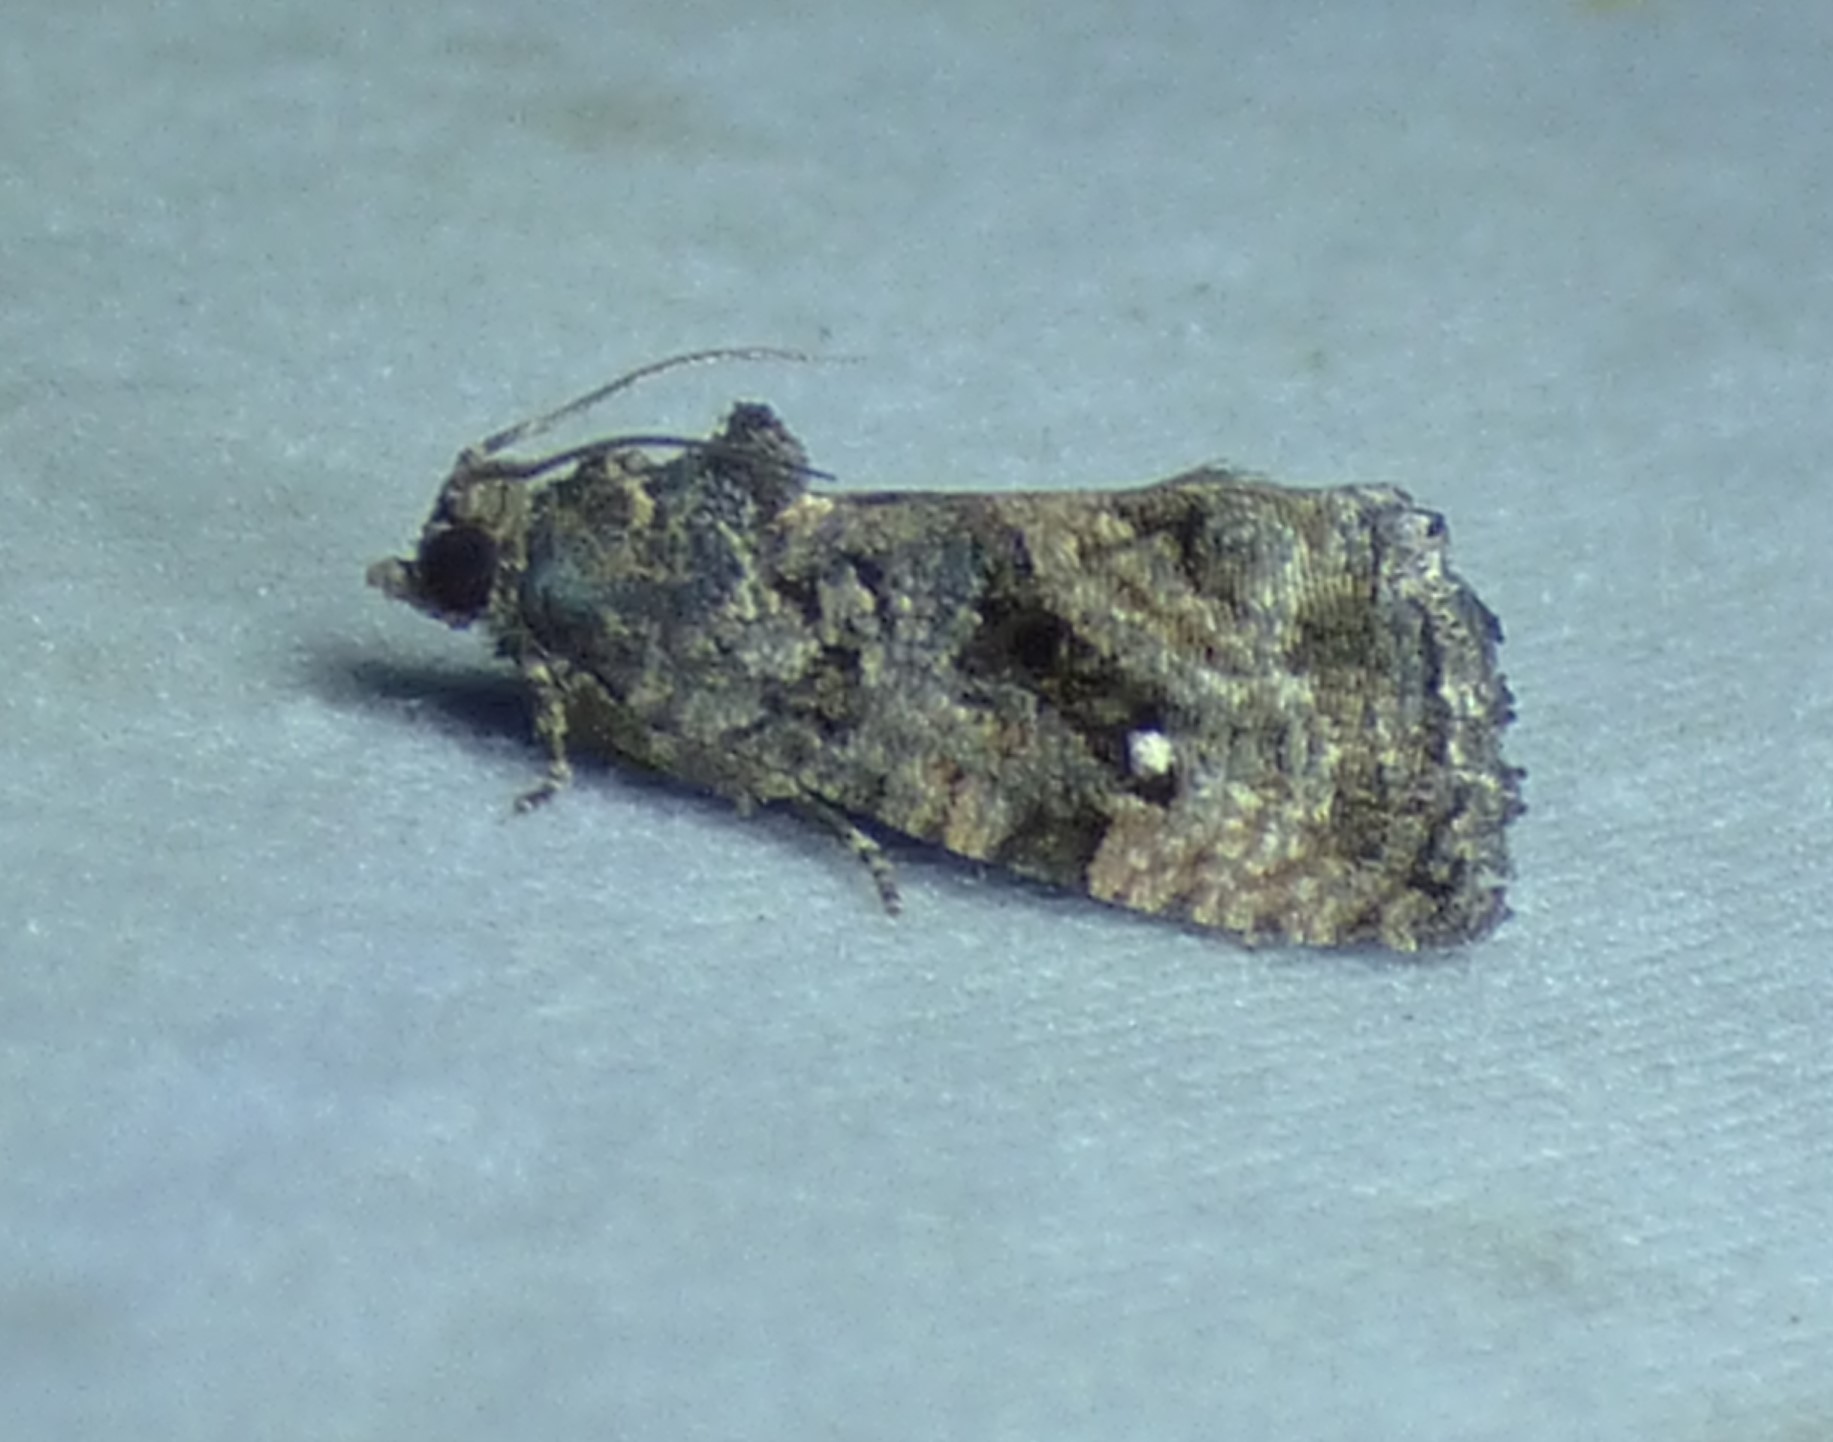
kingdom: Animalia
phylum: Arthropoda
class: Insecta
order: Lepidoptera
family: Tortricidae
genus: Gymnandrosoma
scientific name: Gymnandrosoma punctidiscanum
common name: Dotted ecdytolopha moth
